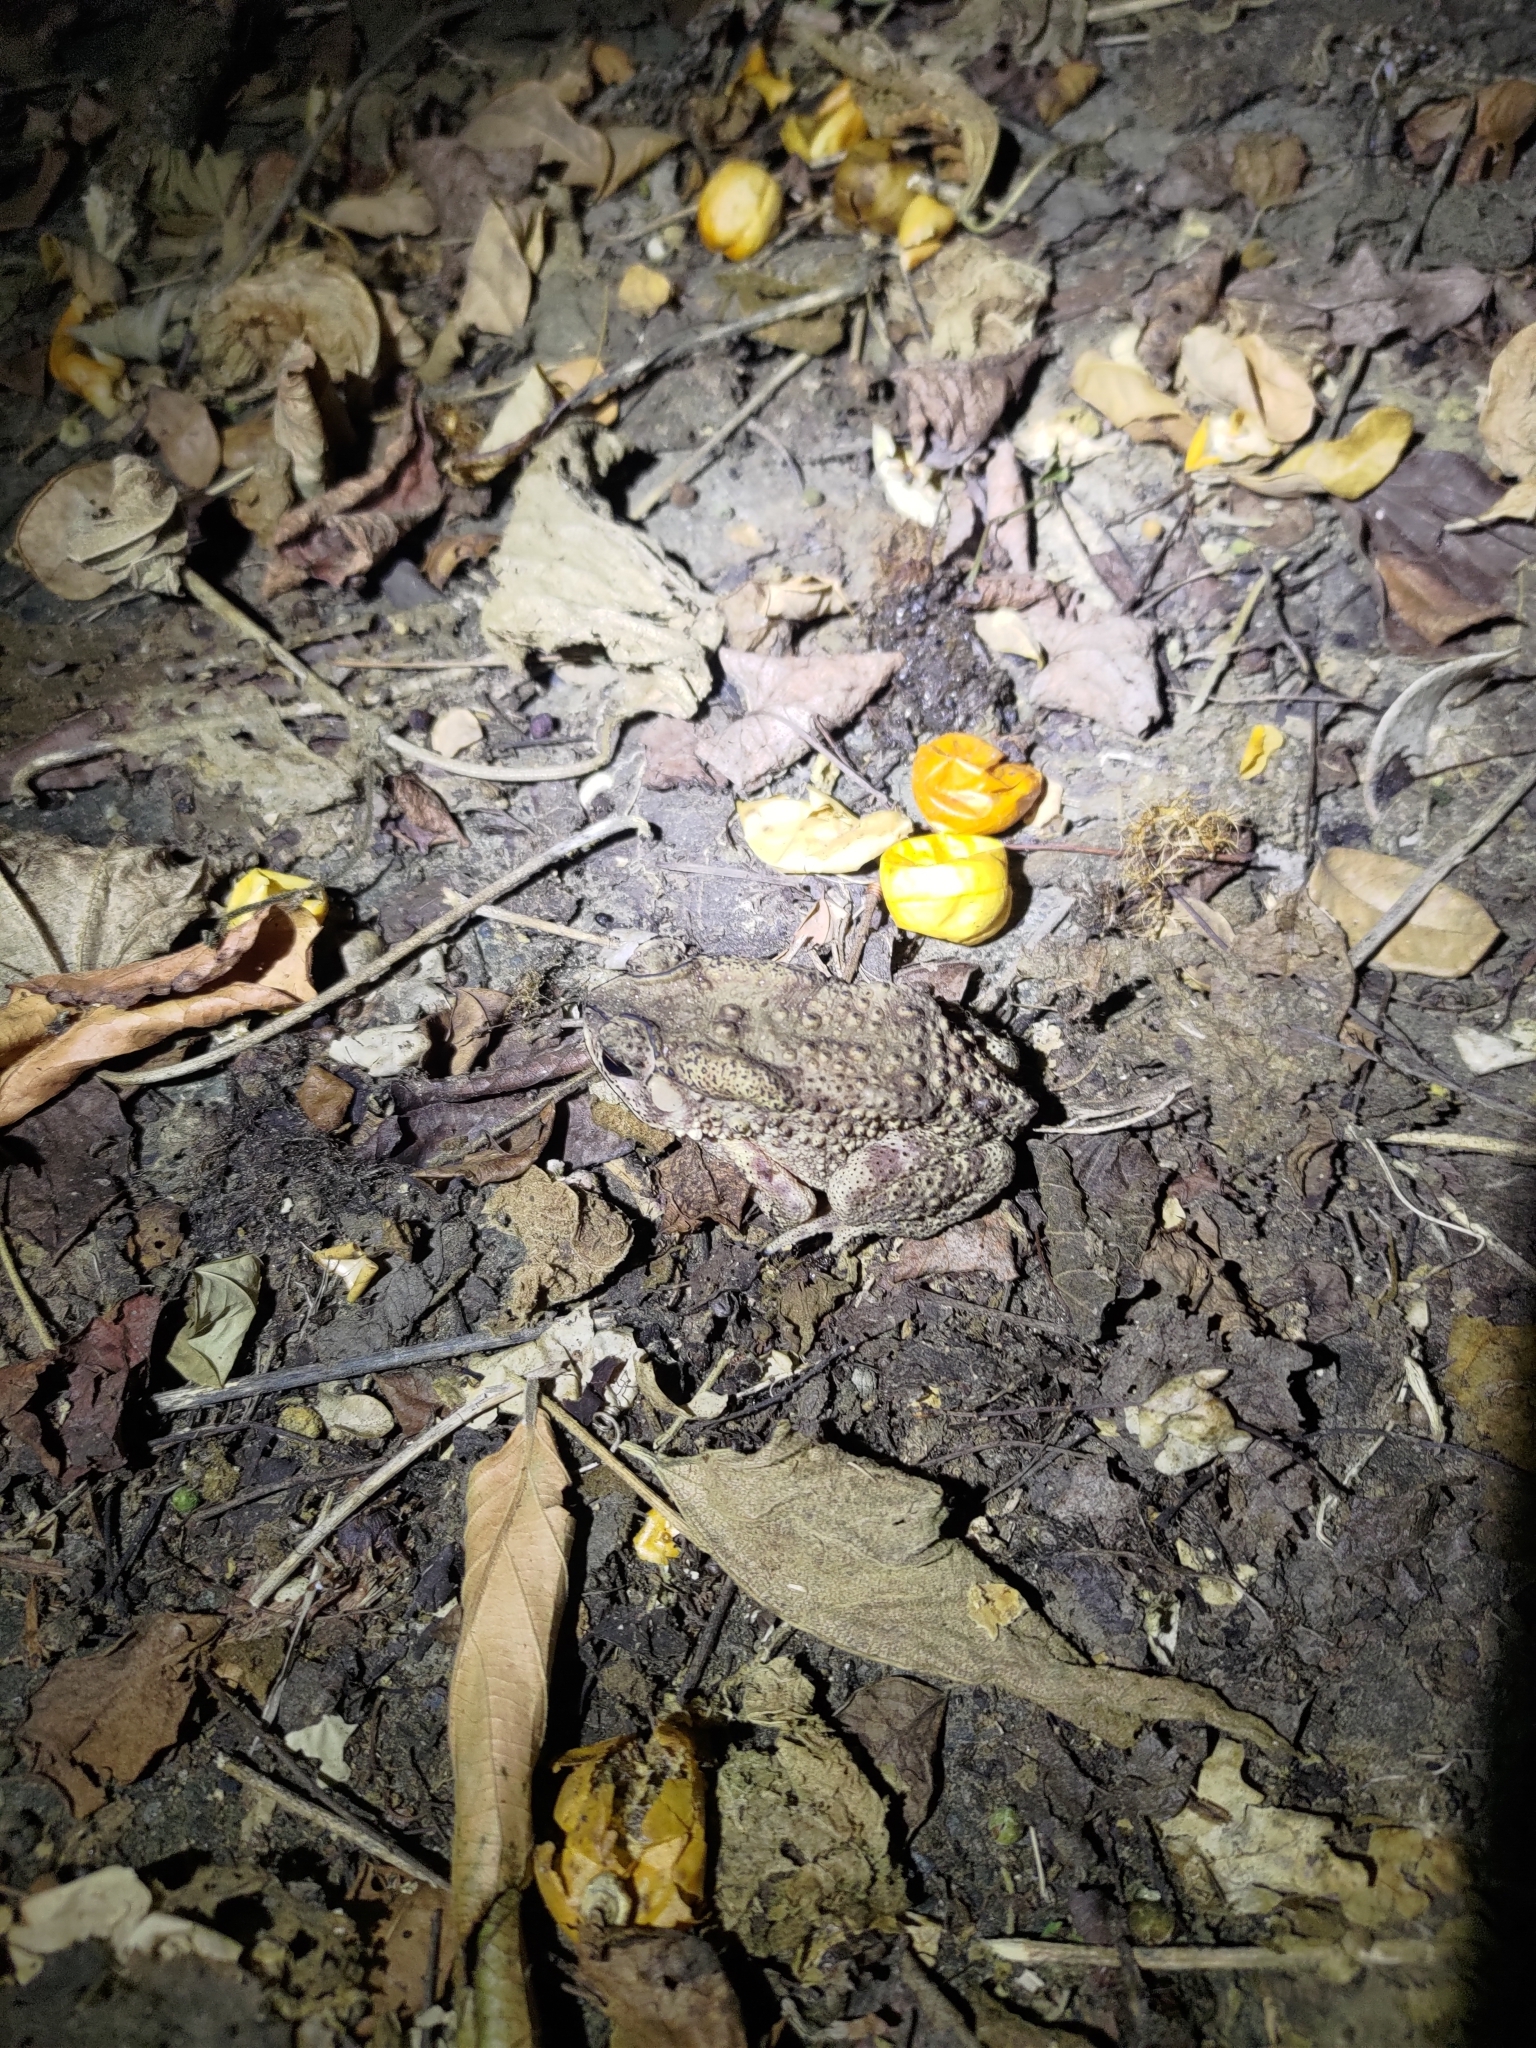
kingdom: Animalia
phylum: Chordata
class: Amphibia
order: Anura
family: Bufonidae
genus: Duttaphrynus
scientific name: Duttaphrynus melanostictus
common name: Common sunda toad
